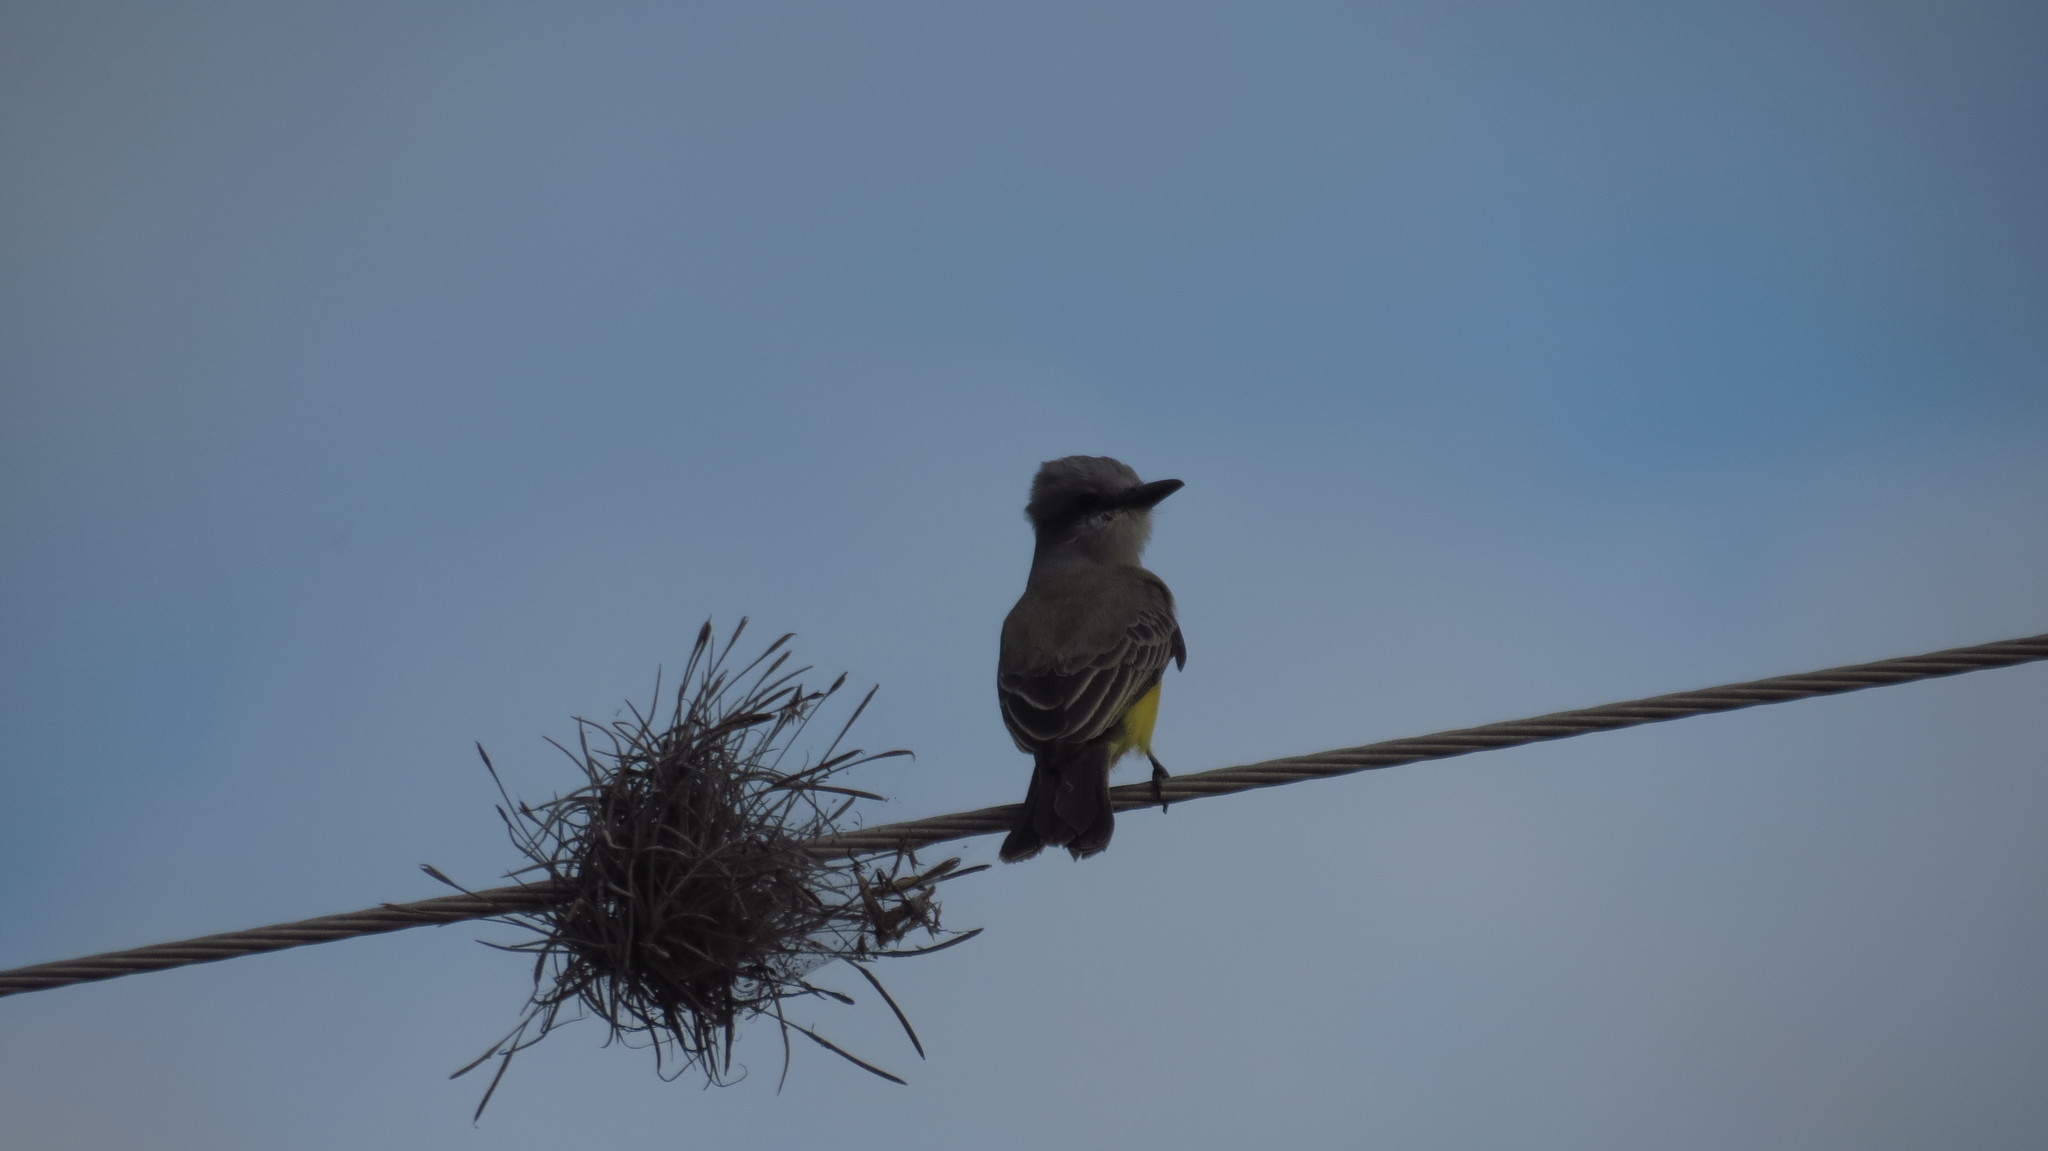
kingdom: Animalia
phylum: Chordata
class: Aves
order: Passeriformes
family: Tyrannidae
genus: Tyrannus
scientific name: Tyrannus verticalis
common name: Western kingbird
